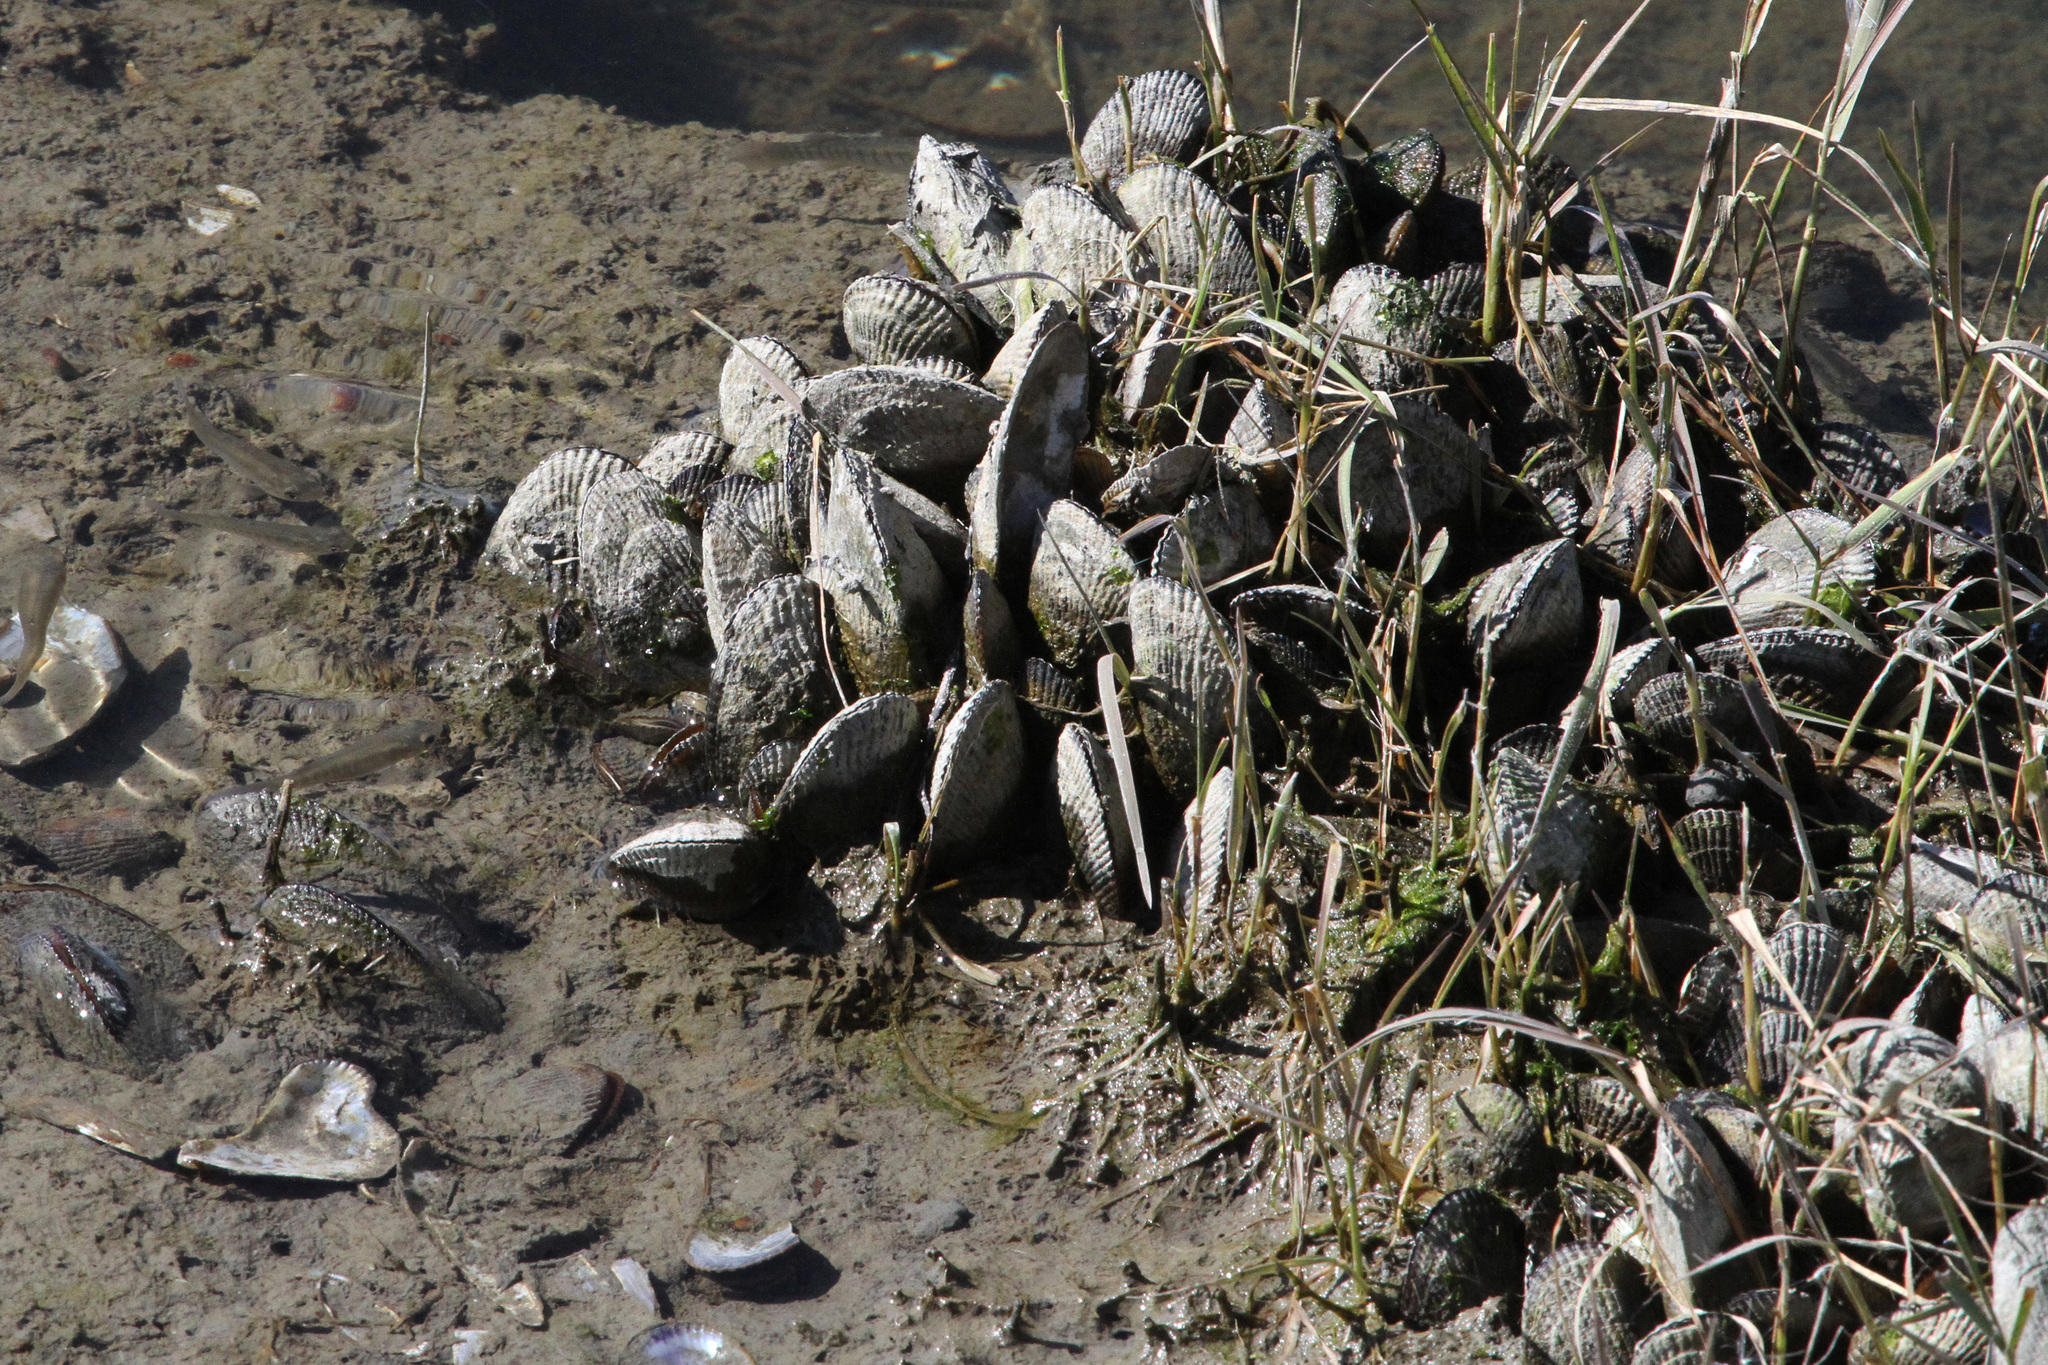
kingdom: Animalia
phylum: Mollusca
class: Bivalvia
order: Mytilida
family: Mytilidae
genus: Geukensia
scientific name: Geukensia demissa
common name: Ribbed mussel
